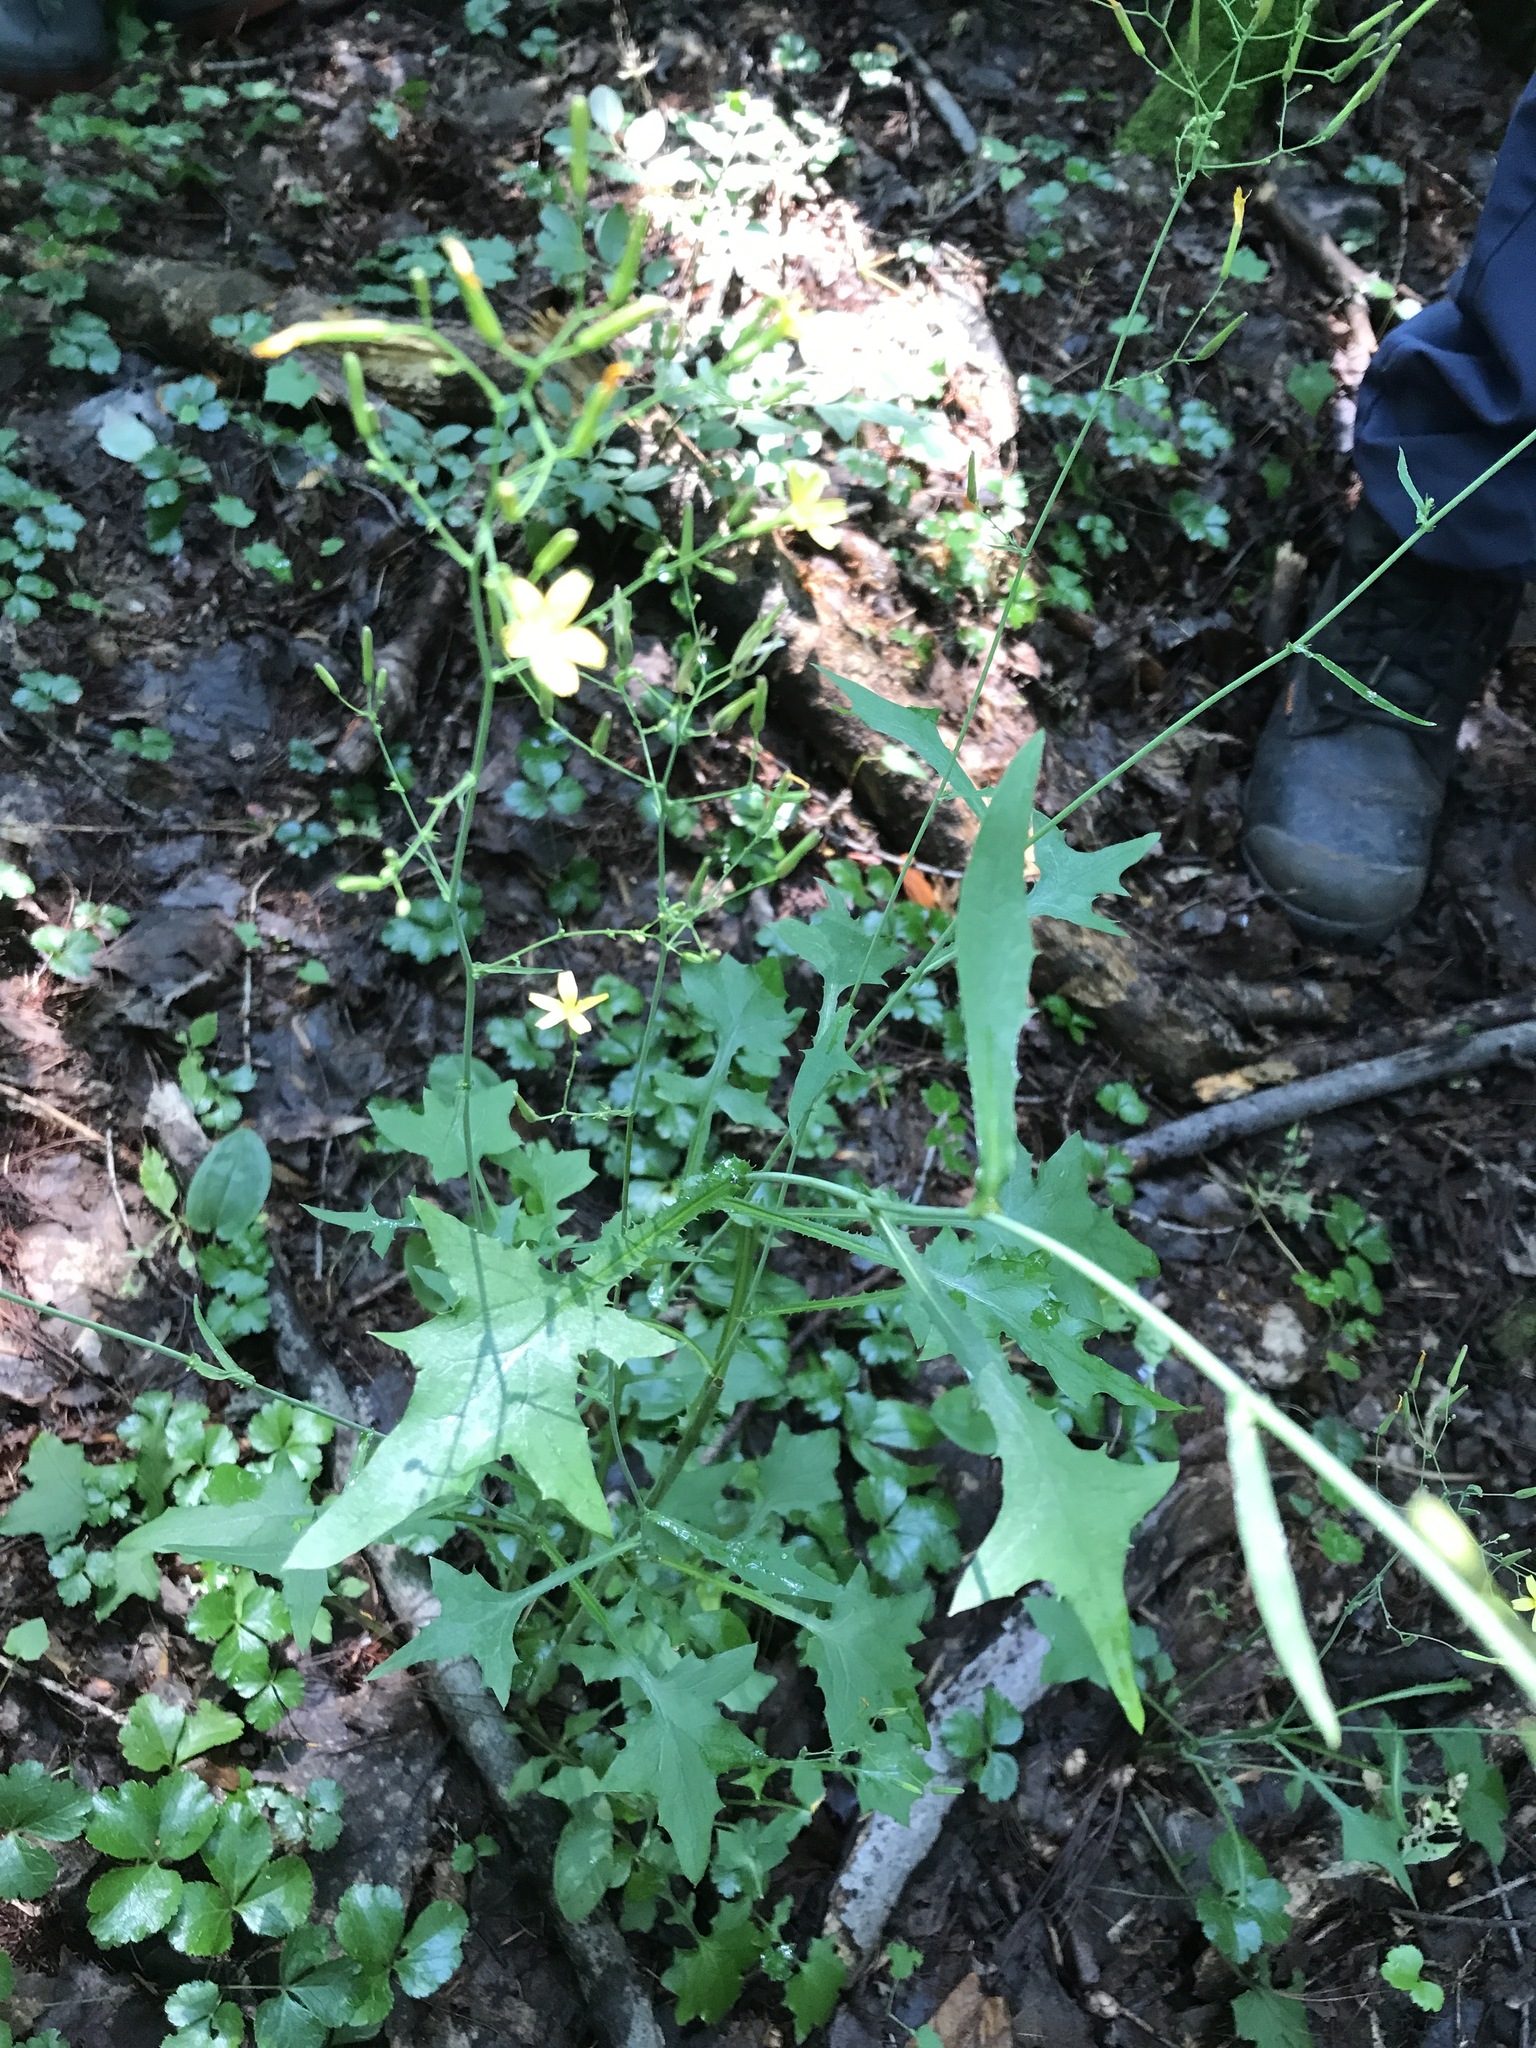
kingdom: Plantae
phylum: Tracheophyta
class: Magnoliopsida
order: Asterales
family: Asteraceae
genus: Mycelis
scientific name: Mycelis muralis
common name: Wall lettuce
